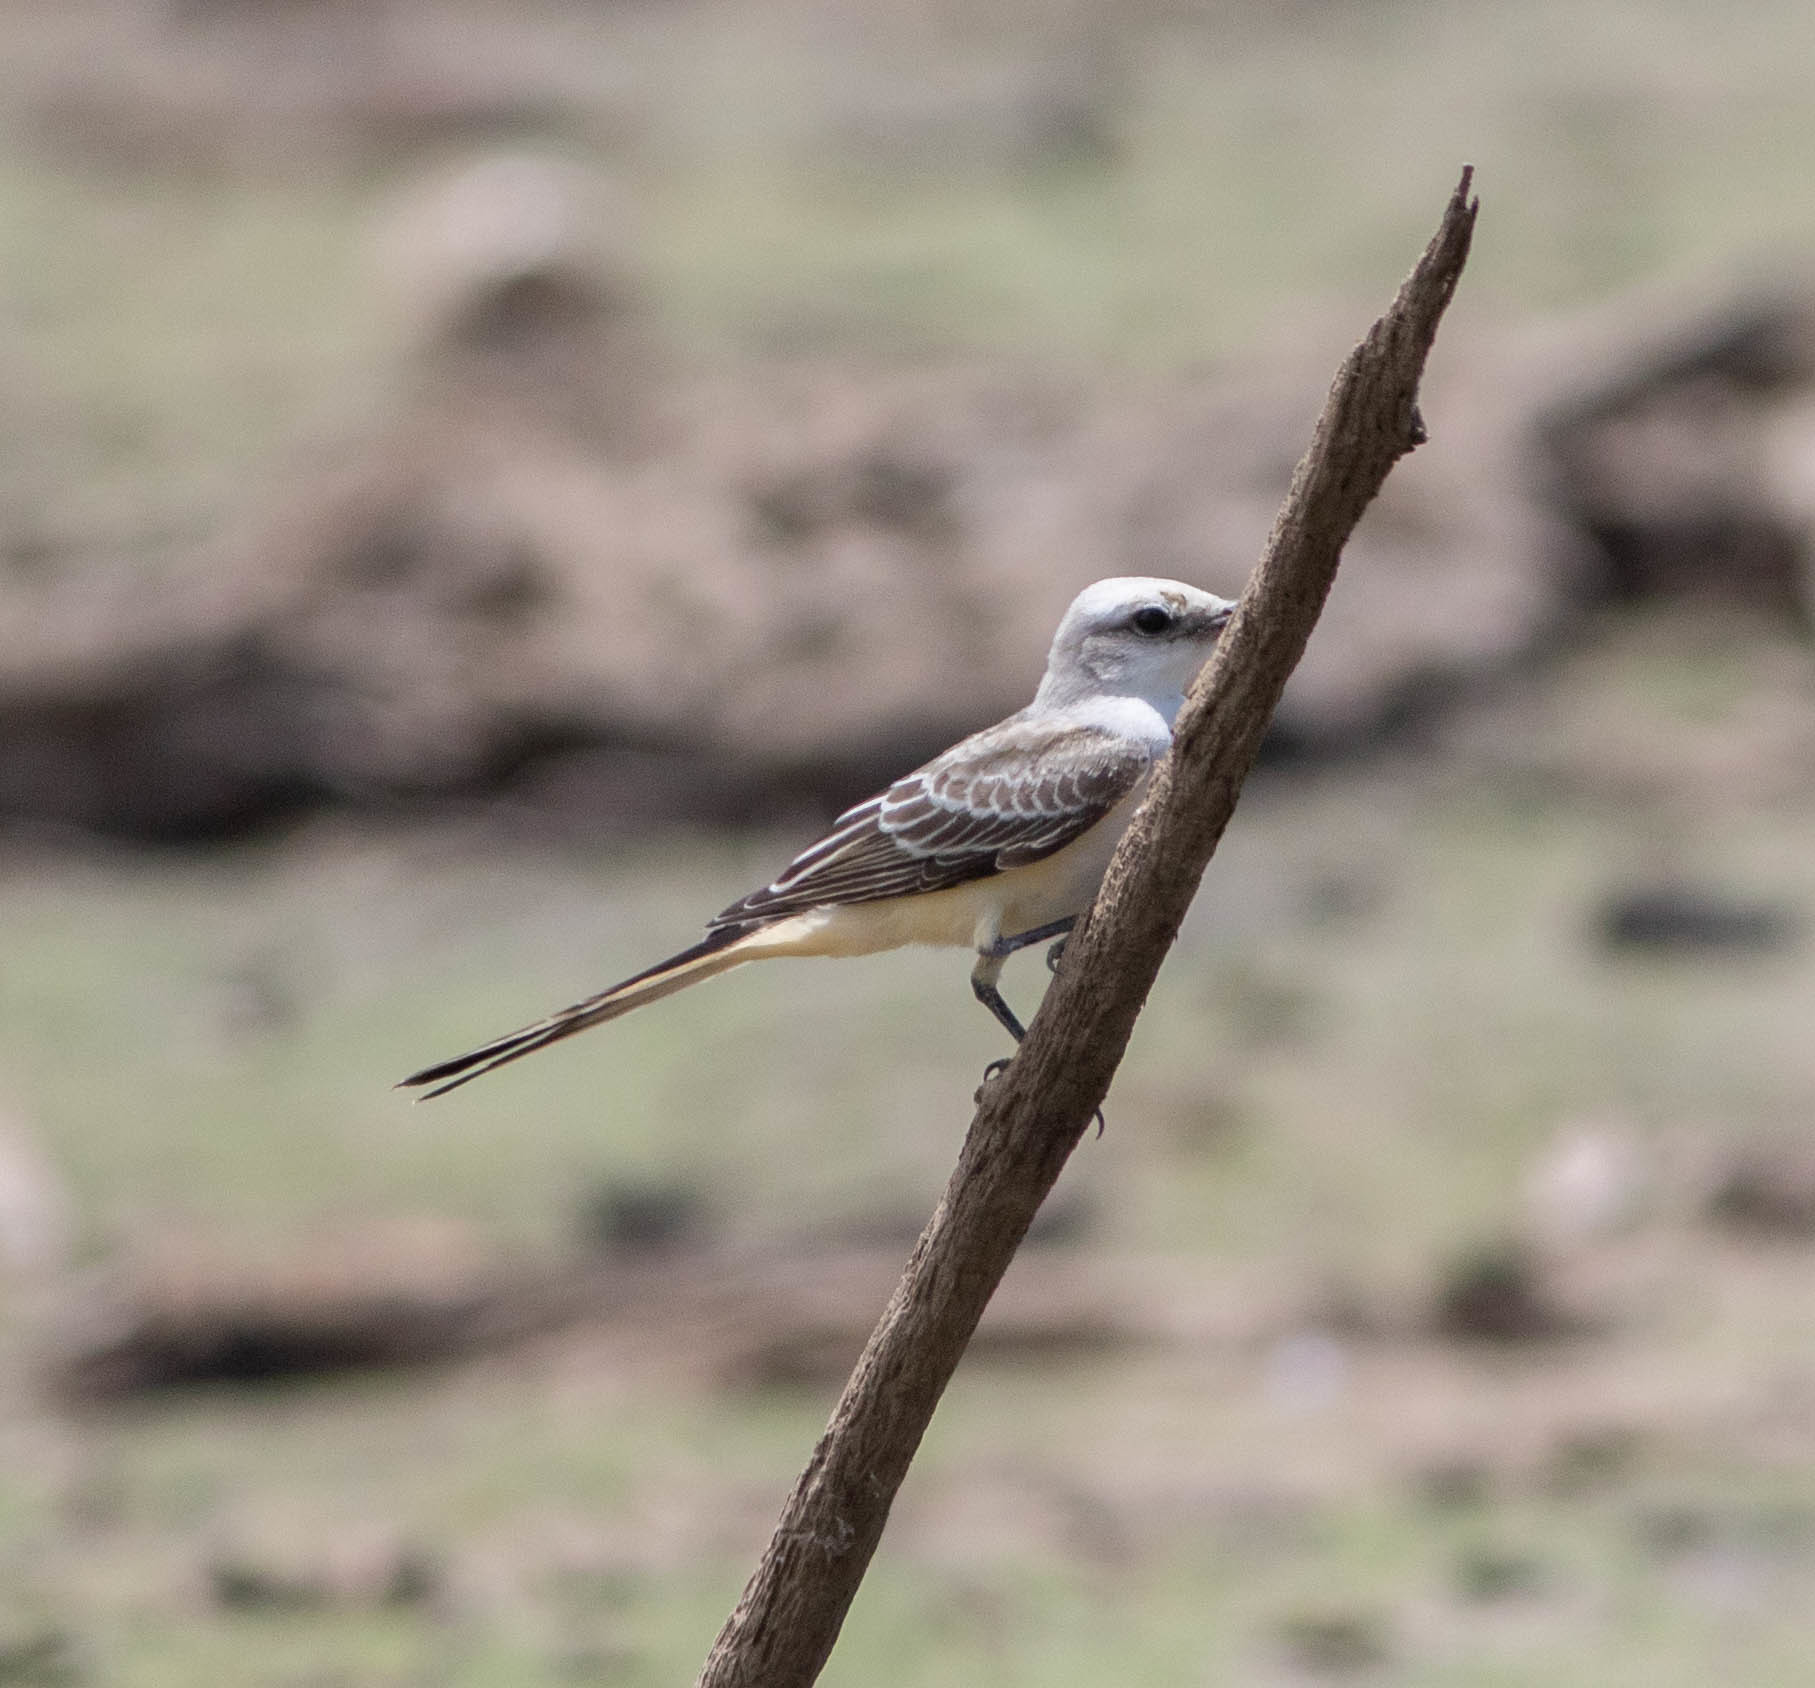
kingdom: Animalia
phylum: Chordata
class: Aves
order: Passeriformes
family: Tyrannidae
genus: Tyrannus
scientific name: Tyrannus forficatus
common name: Scissor-tailed flycatcher
